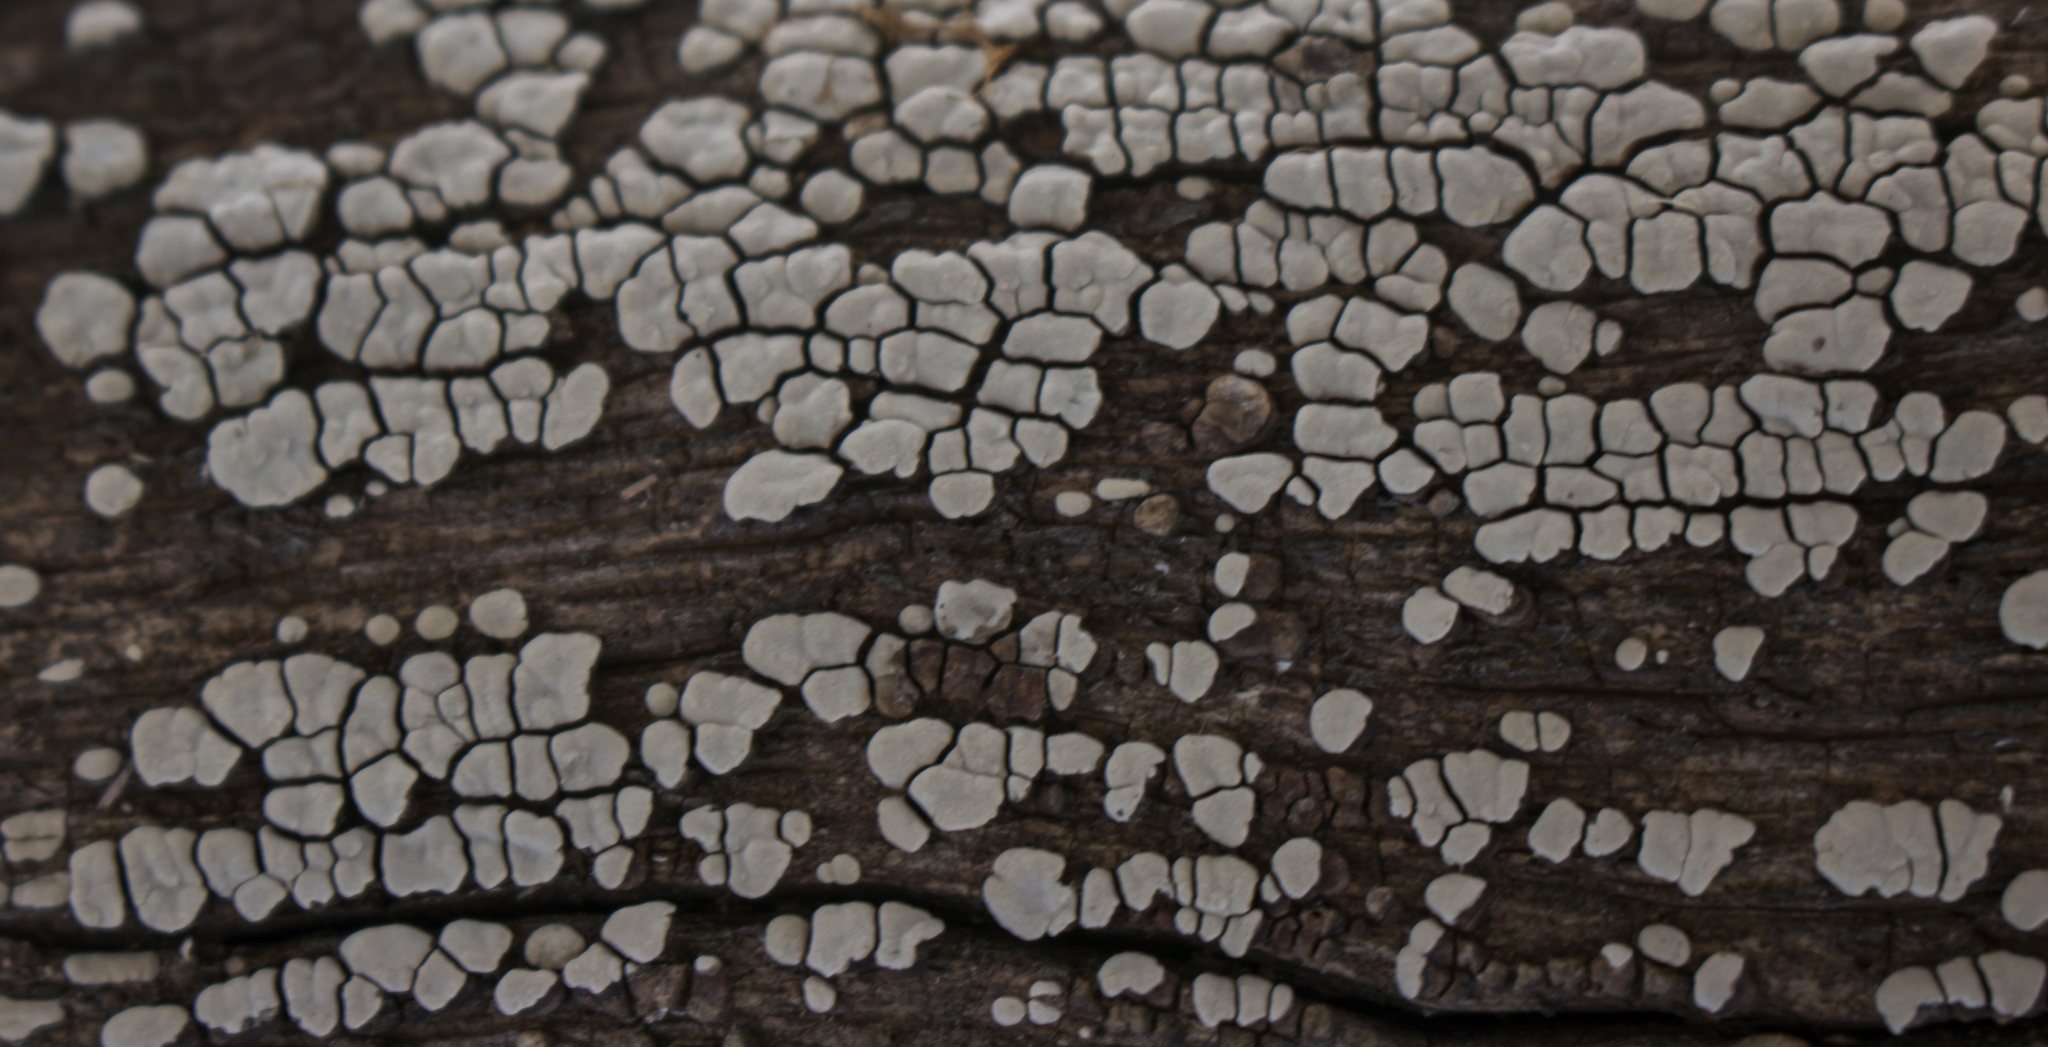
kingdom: Fungi
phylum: Basidiomycota
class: Agaricomycetes
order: Russulales
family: Stereaceae
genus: Xylobolus
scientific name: Xylobolus frustulatus
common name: Ceramic parchment
